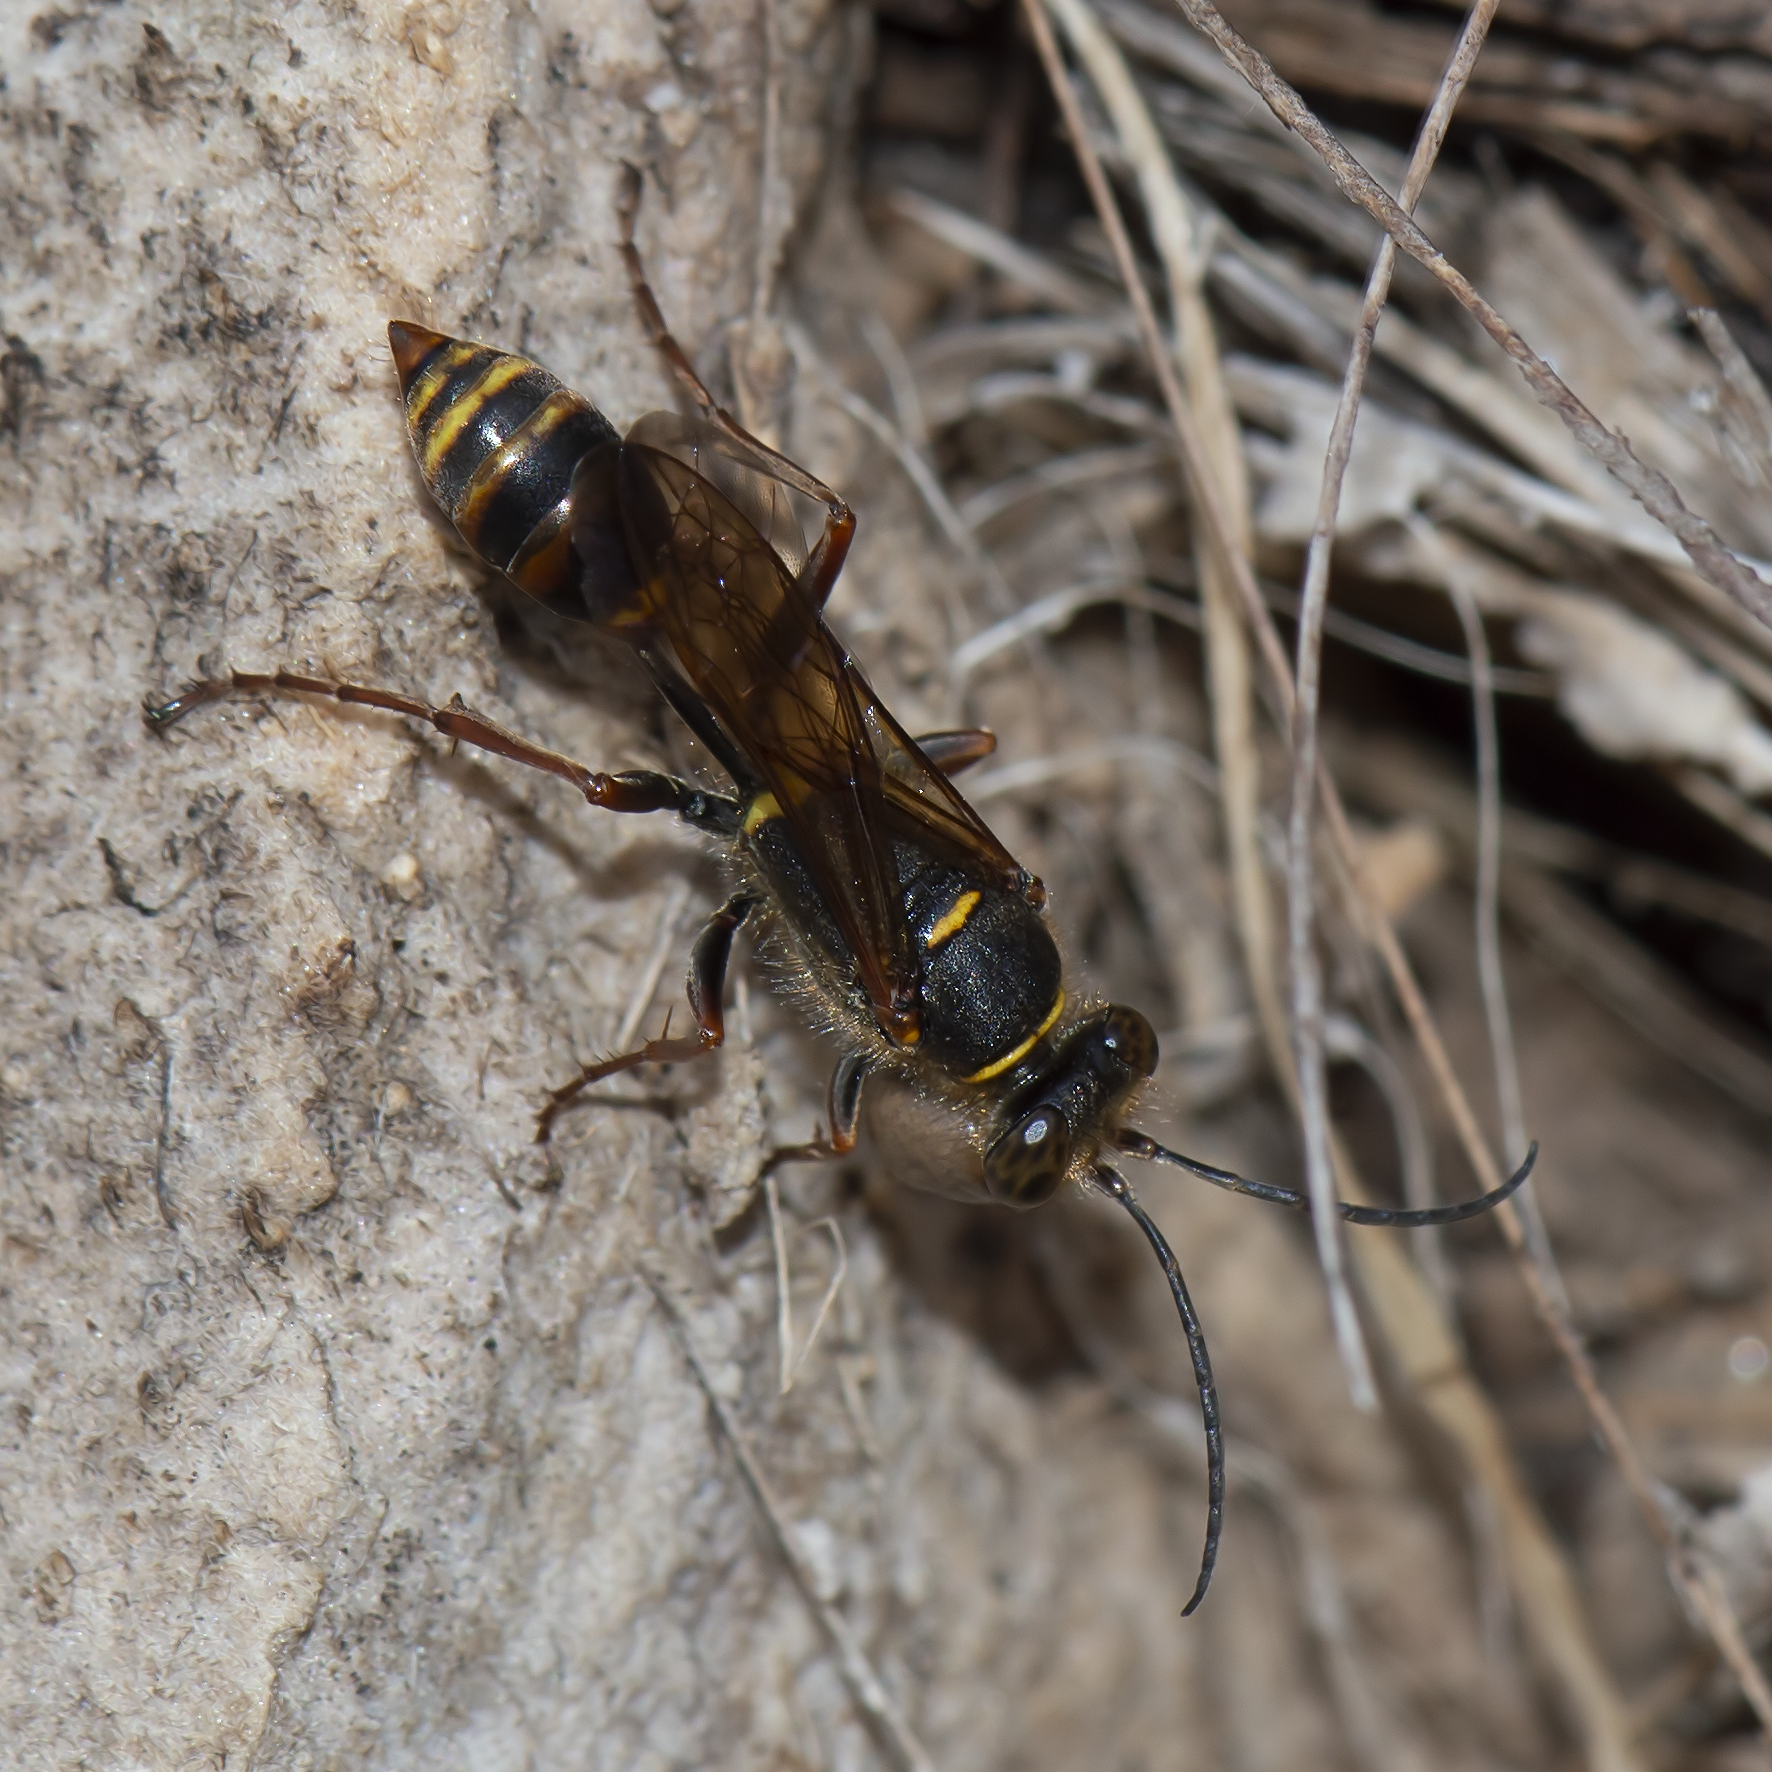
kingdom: Animalia
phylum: Arthropoda
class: Insecta
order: Hymenoptera
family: Sphecidae
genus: Sceliphron
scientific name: Sceliphron curvatum
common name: Pèlopèe
